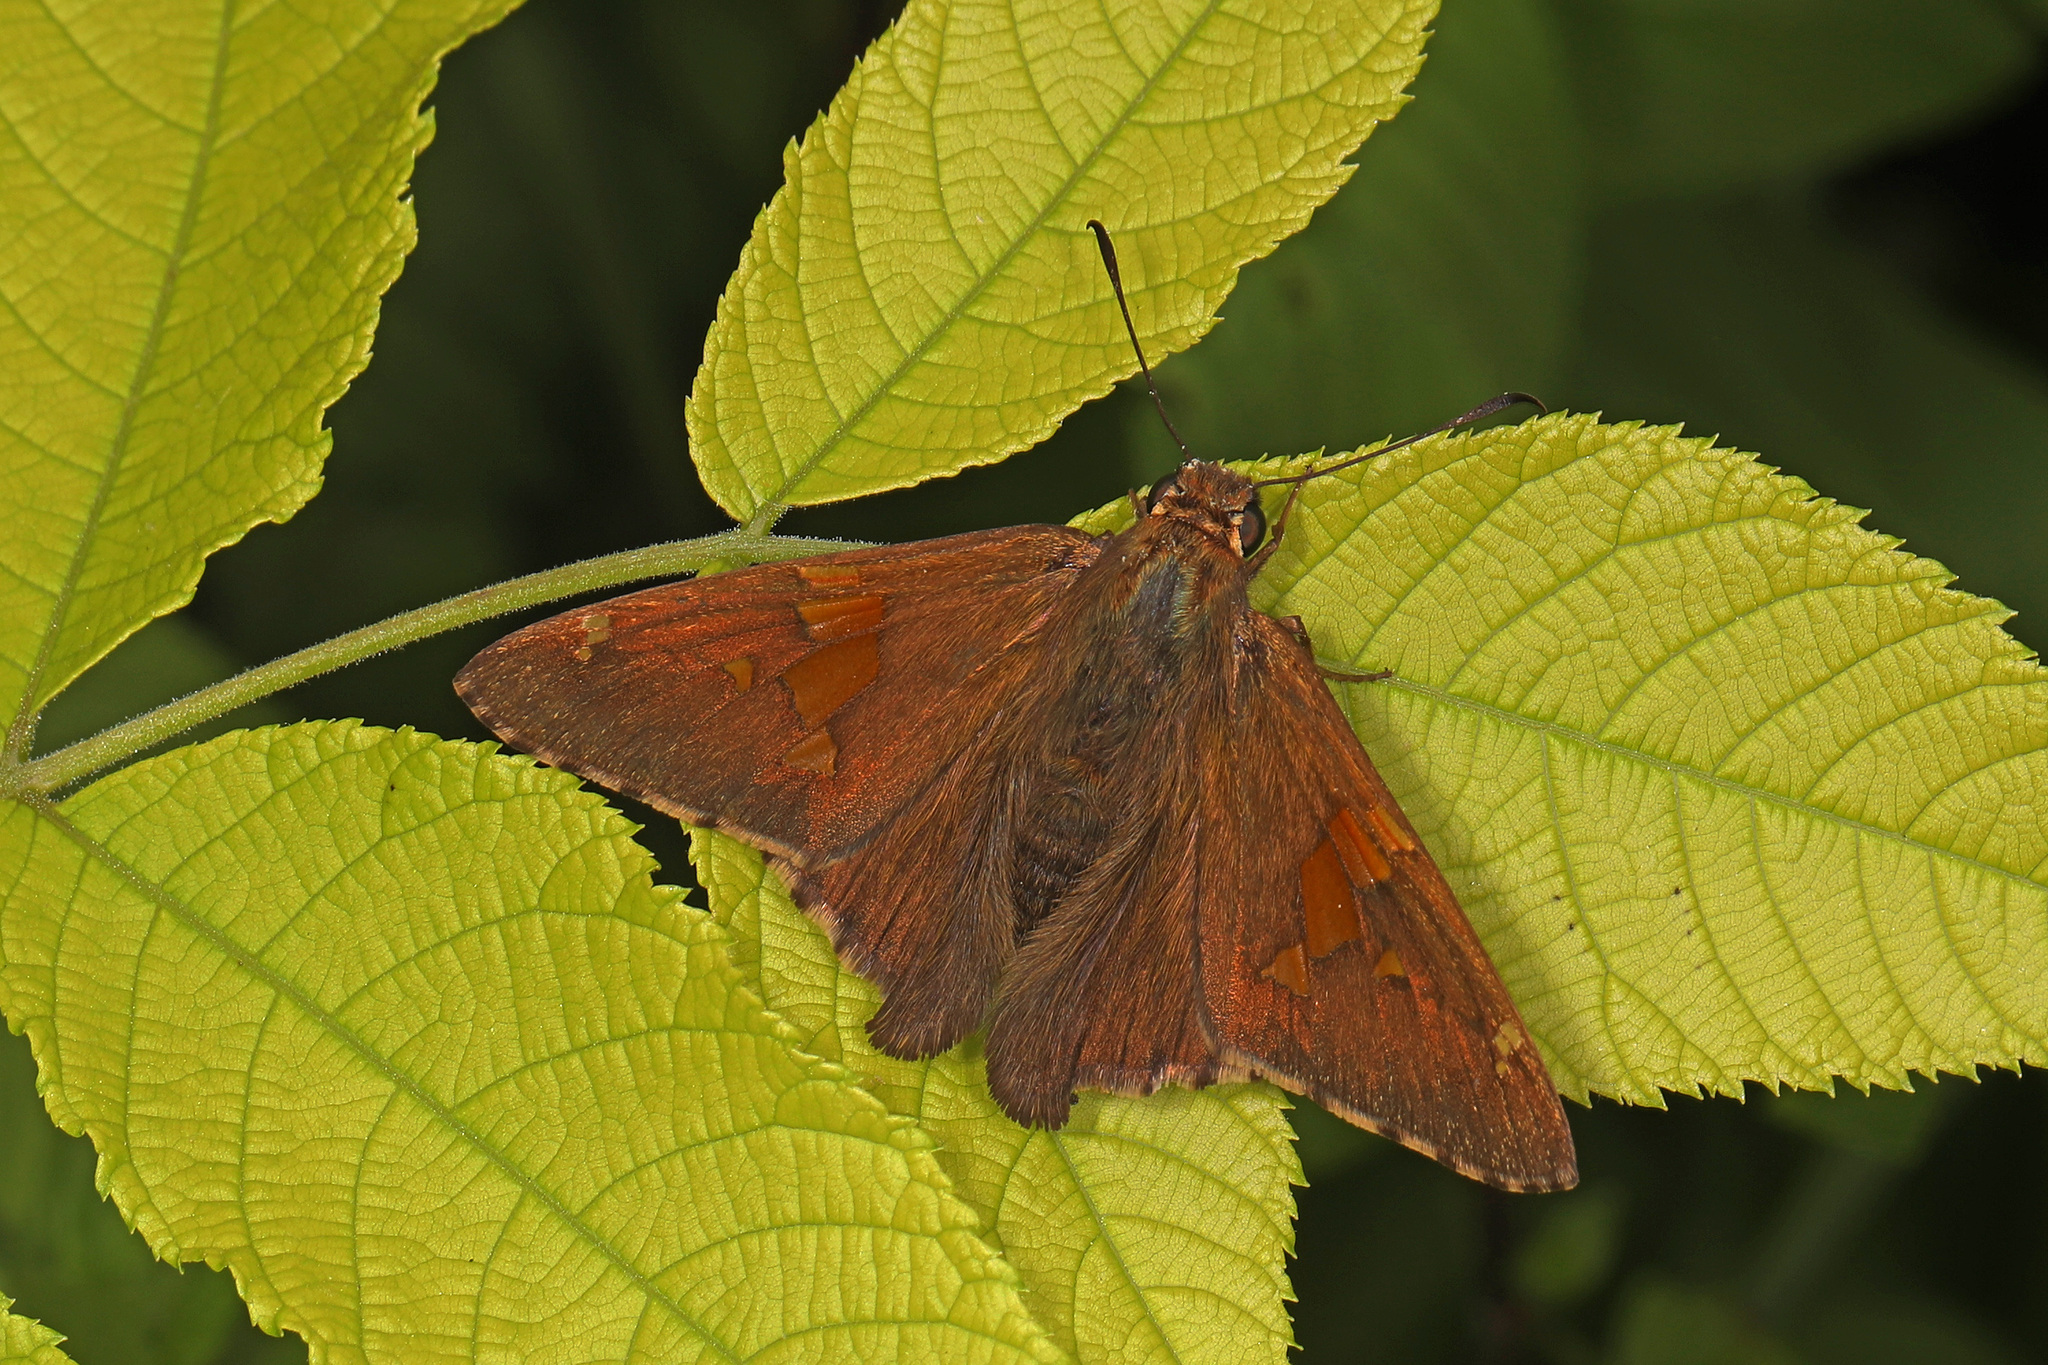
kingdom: Animalia
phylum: Arthropoda
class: Insecta
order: Lepidoptera
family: Hesperiidae
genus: Epargyreus
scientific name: Epargyreus clarus
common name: Silver-spotted skipper
